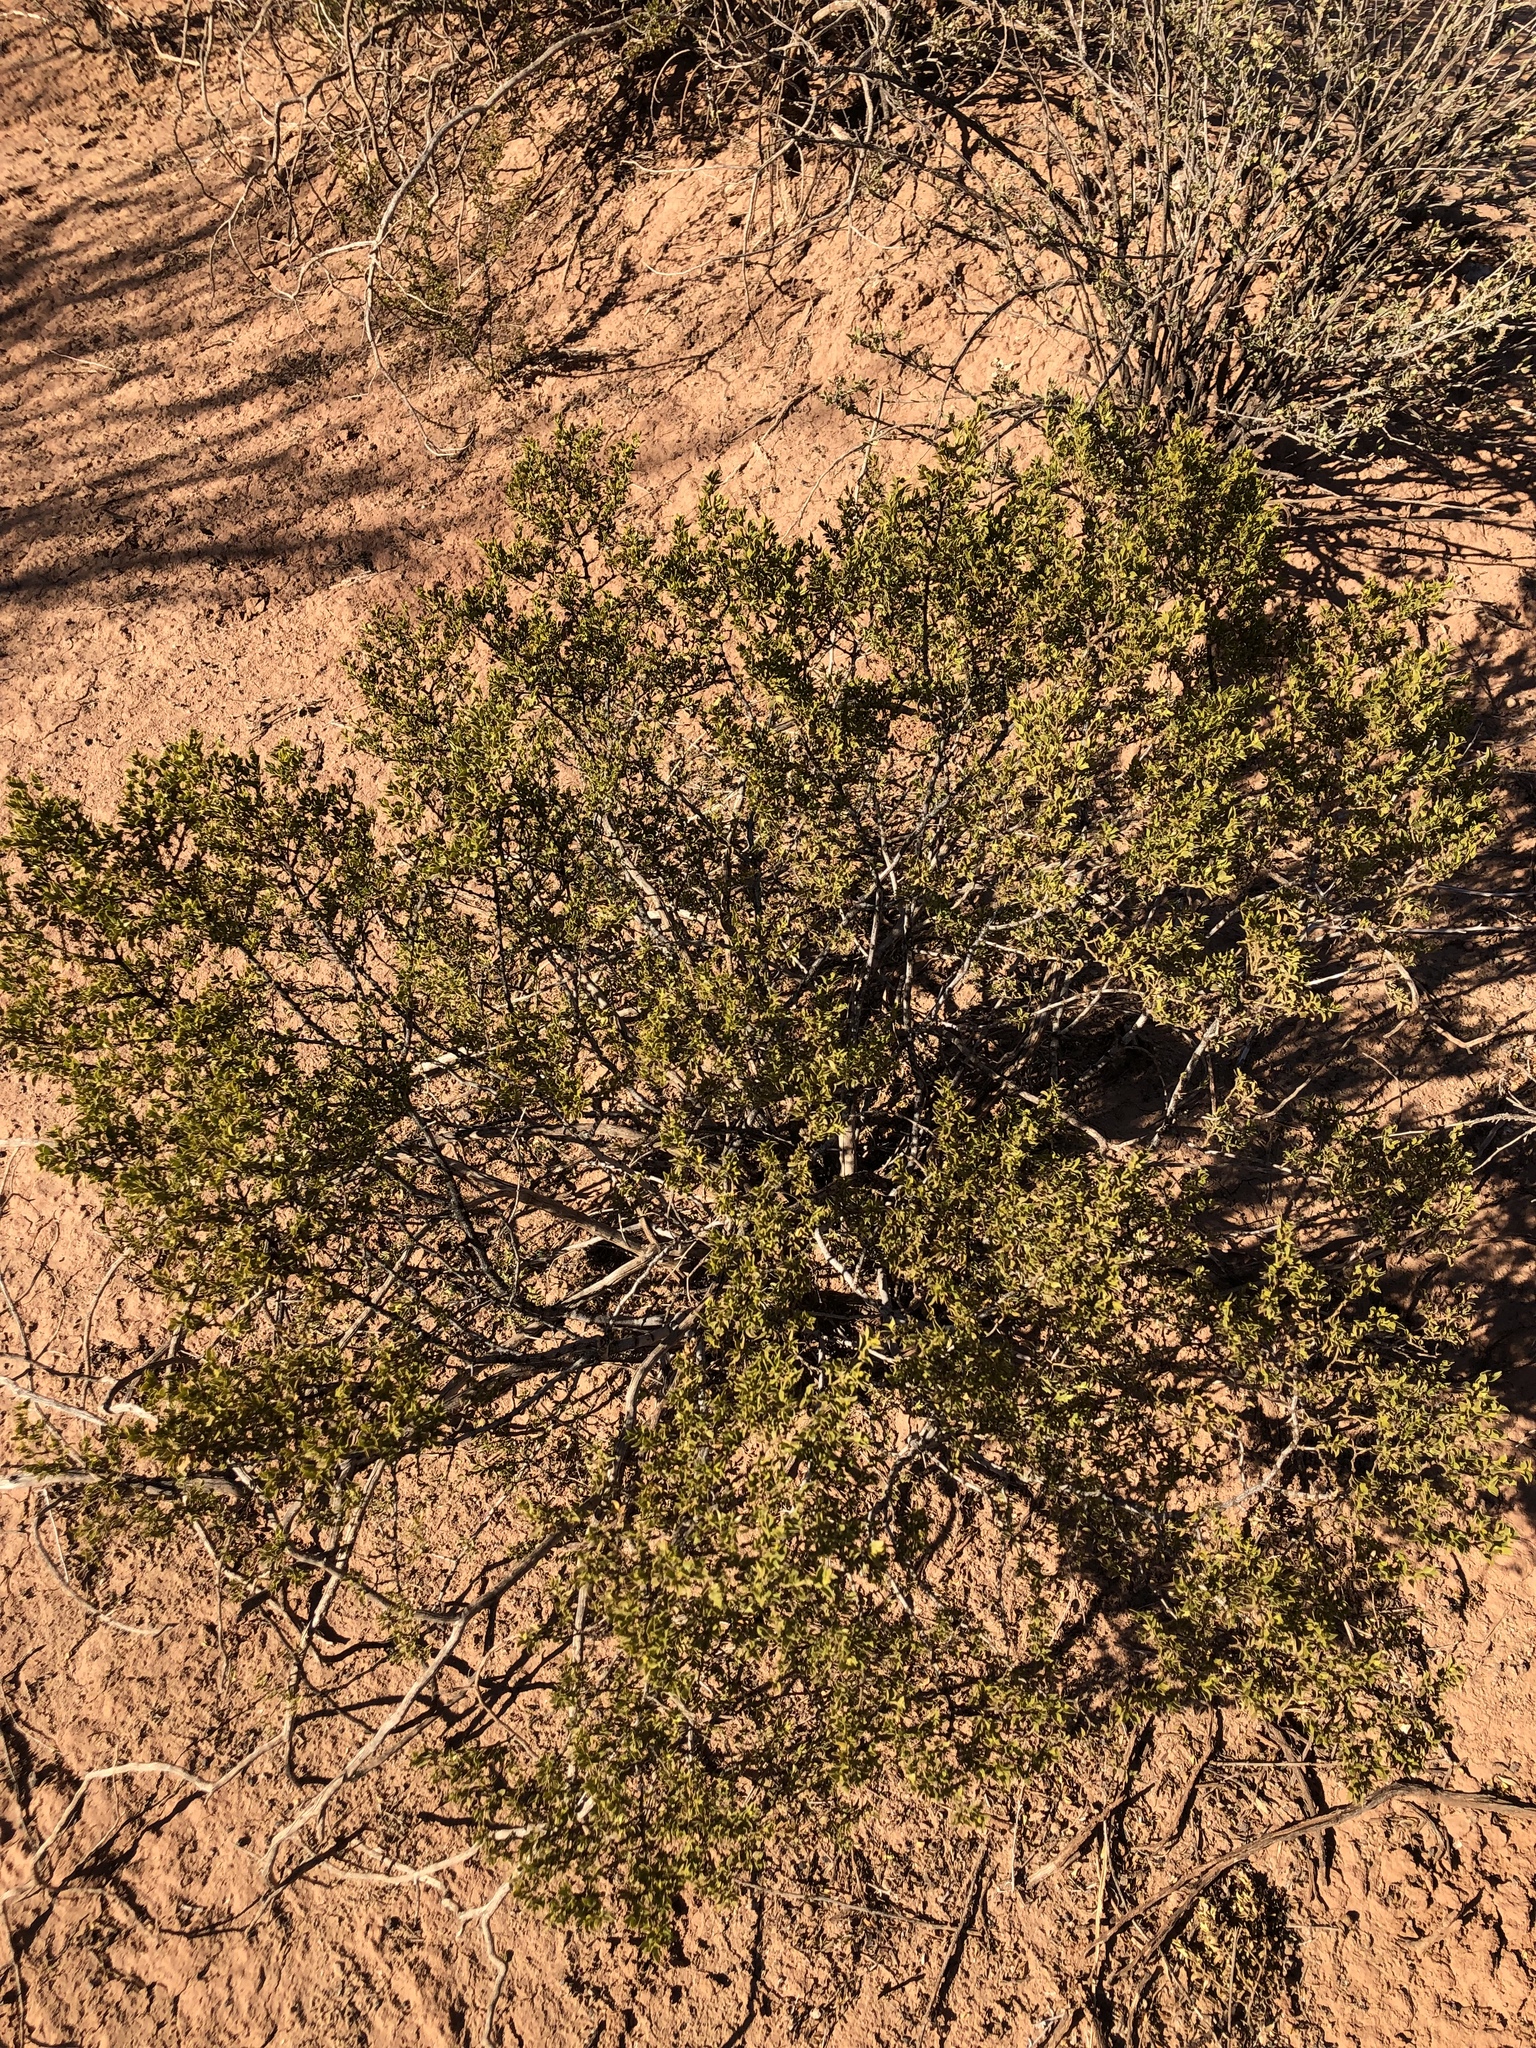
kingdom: Plantae
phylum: Tracheophyta
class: Magnoliopsida
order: Zygophyllales
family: Zygophyllaceae
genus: Larrea
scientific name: Larrea tridentata
